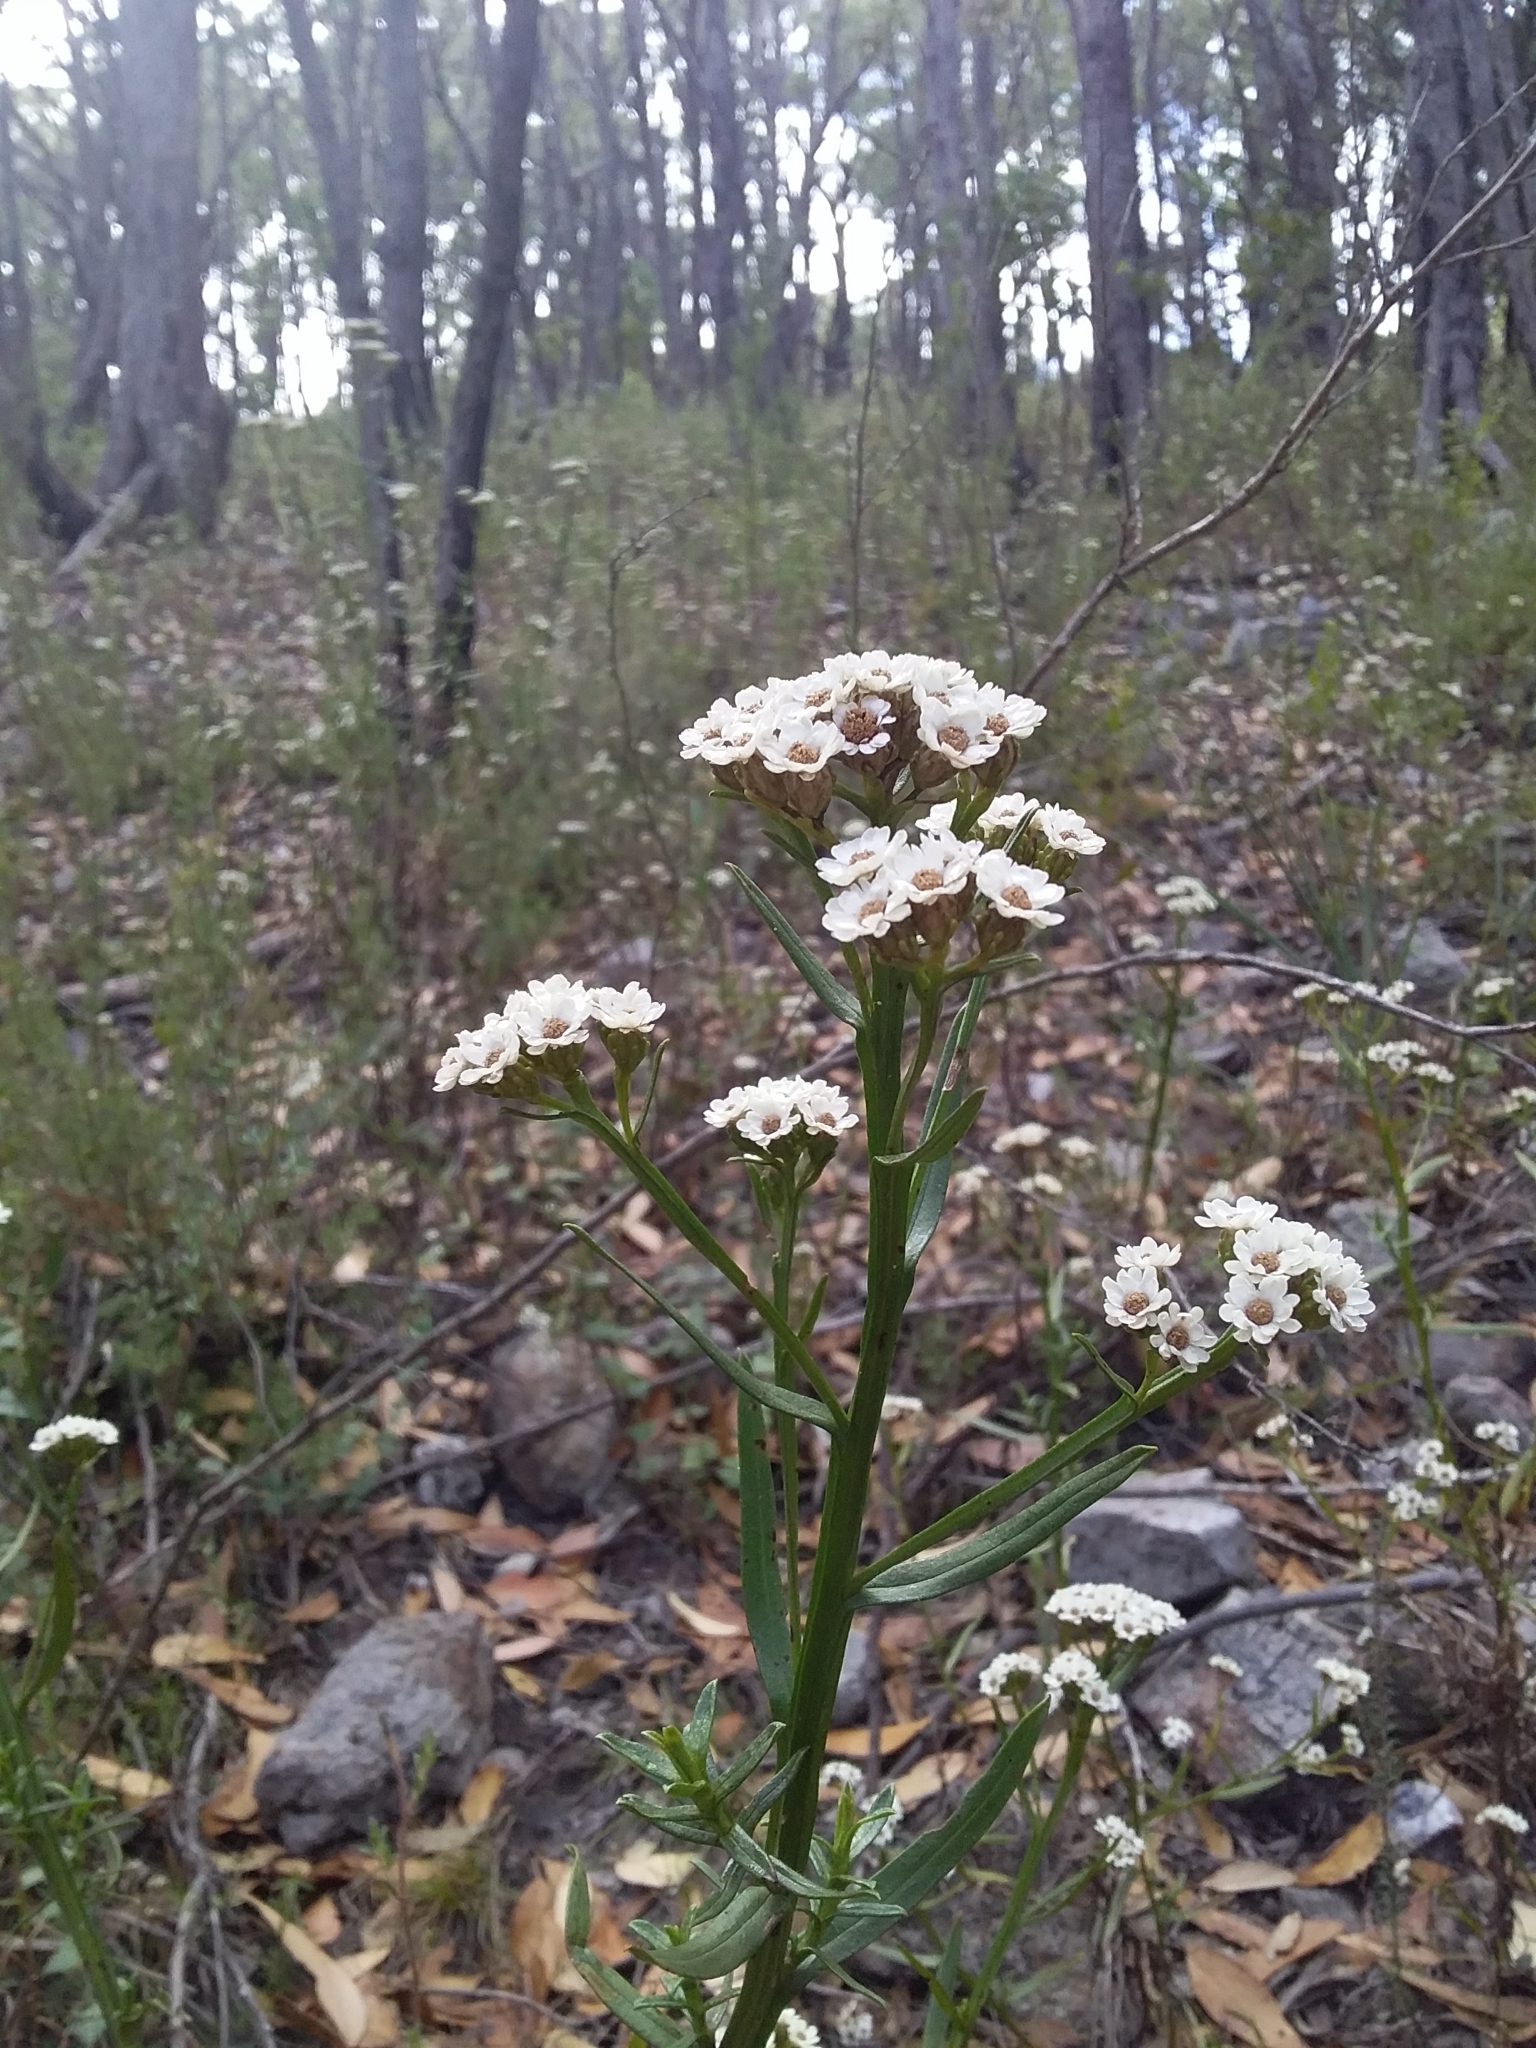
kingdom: Plantae
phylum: Tracheophyta
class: Magnoliopsida
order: Asterales
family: Asteraceae
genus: Ixodia
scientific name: Ixodia achillaeoides
